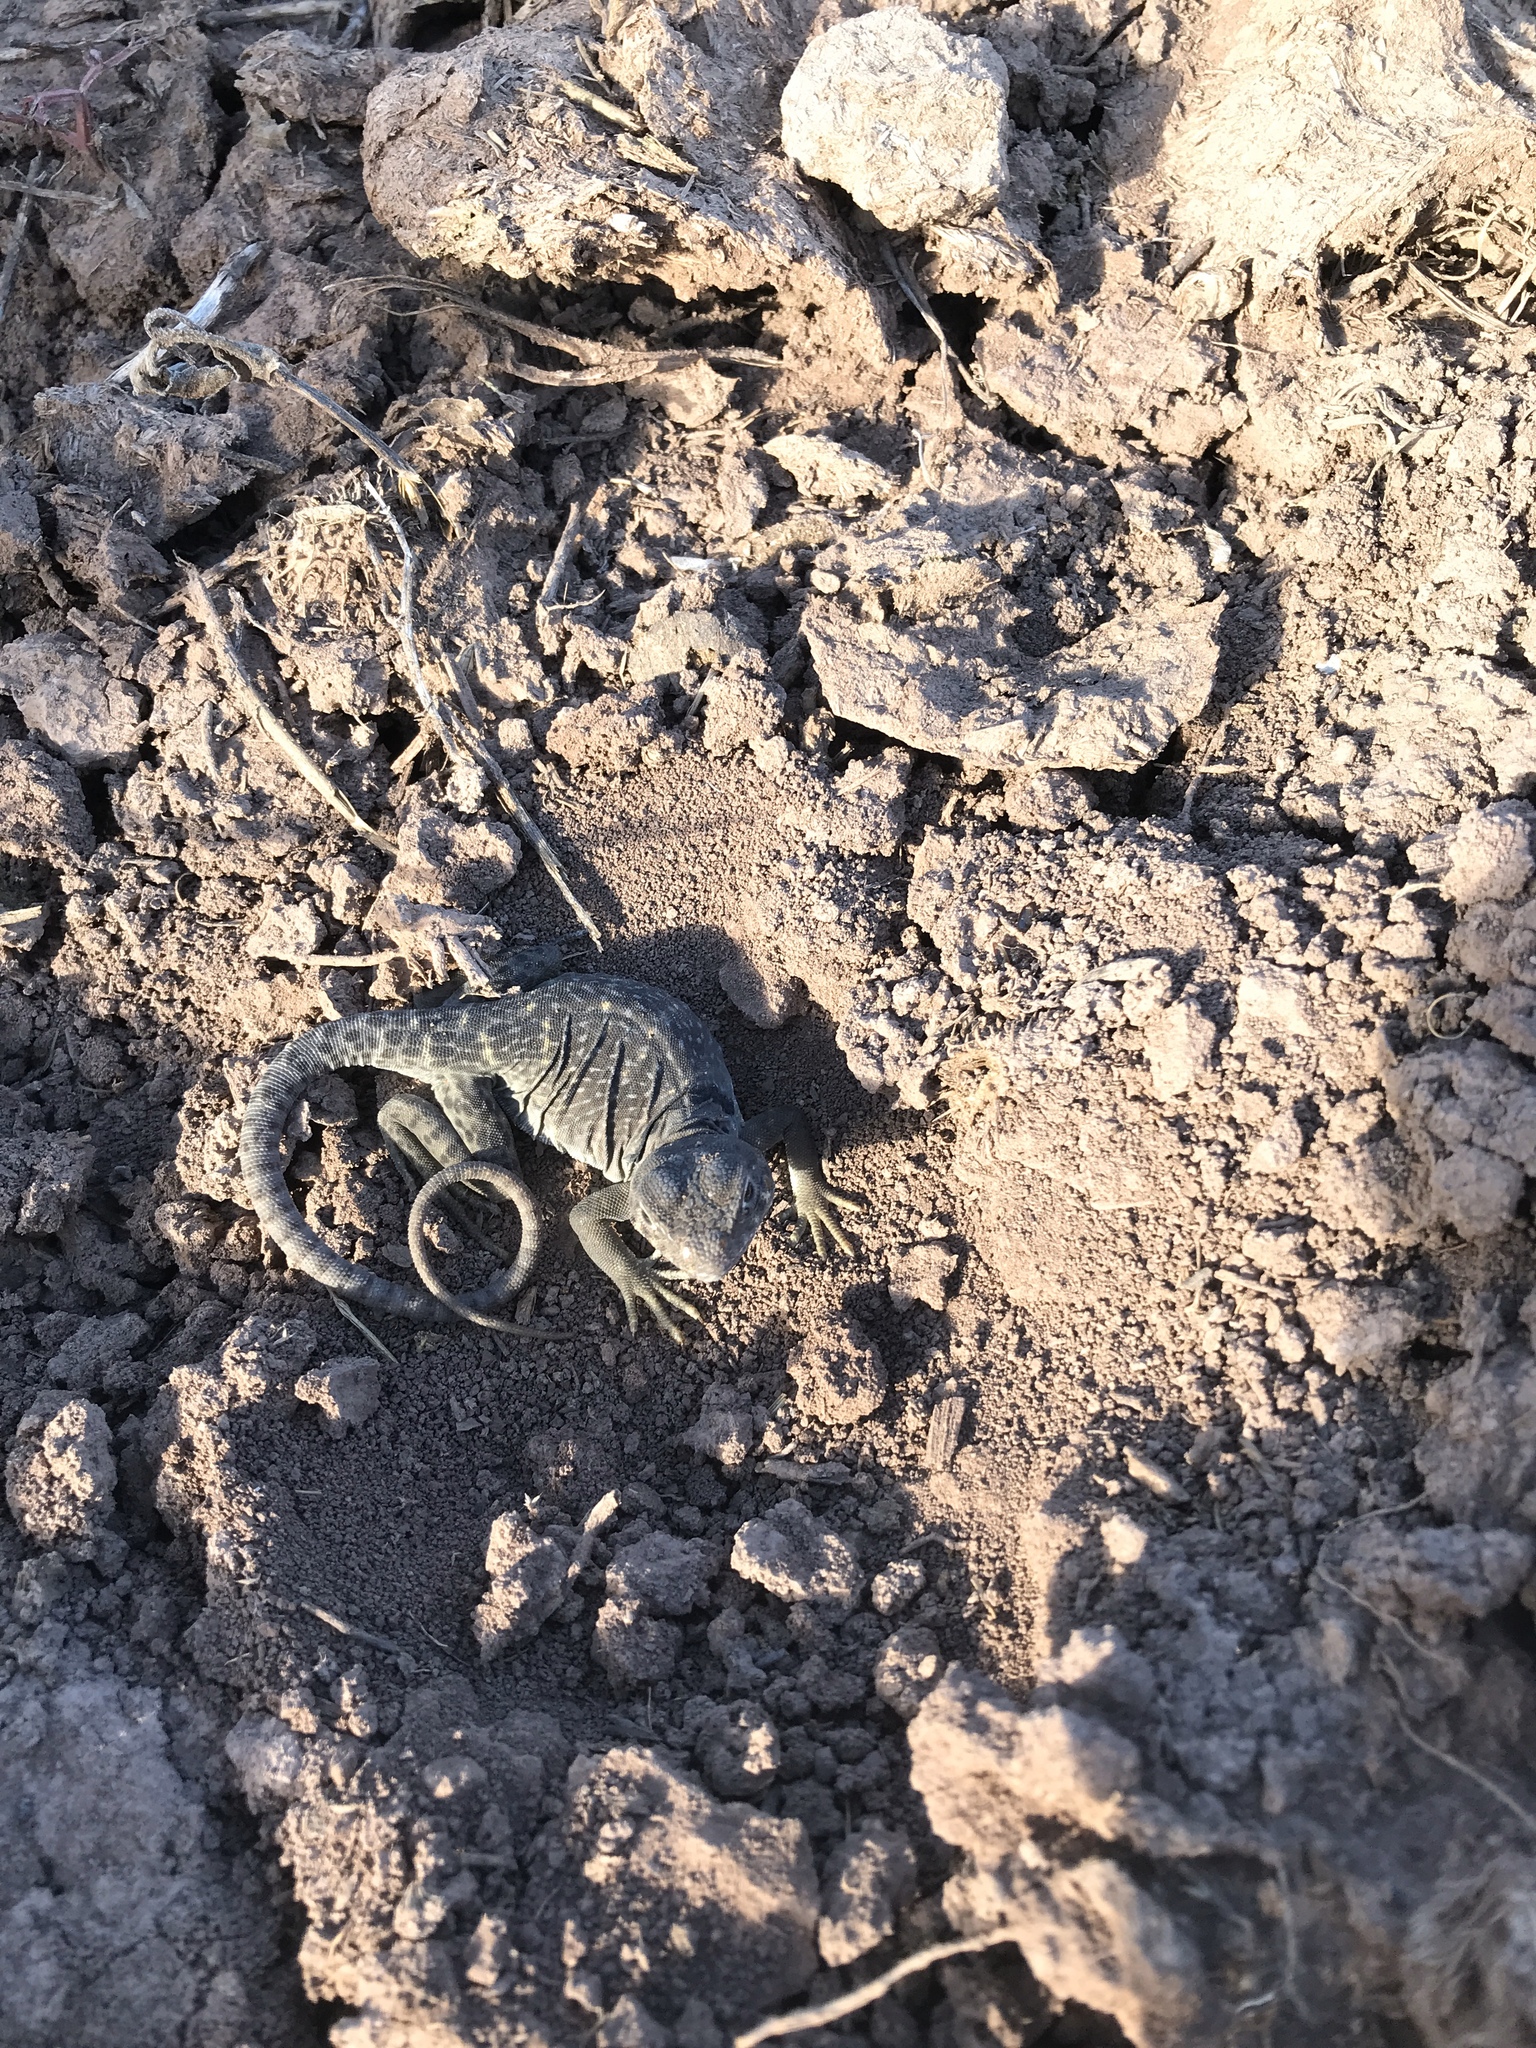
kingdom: Animalia
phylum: Chordata
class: Squamata
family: Crotaphytidae
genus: Crotaphytus
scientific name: Crotaphytus collaris
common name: Collared lizard
